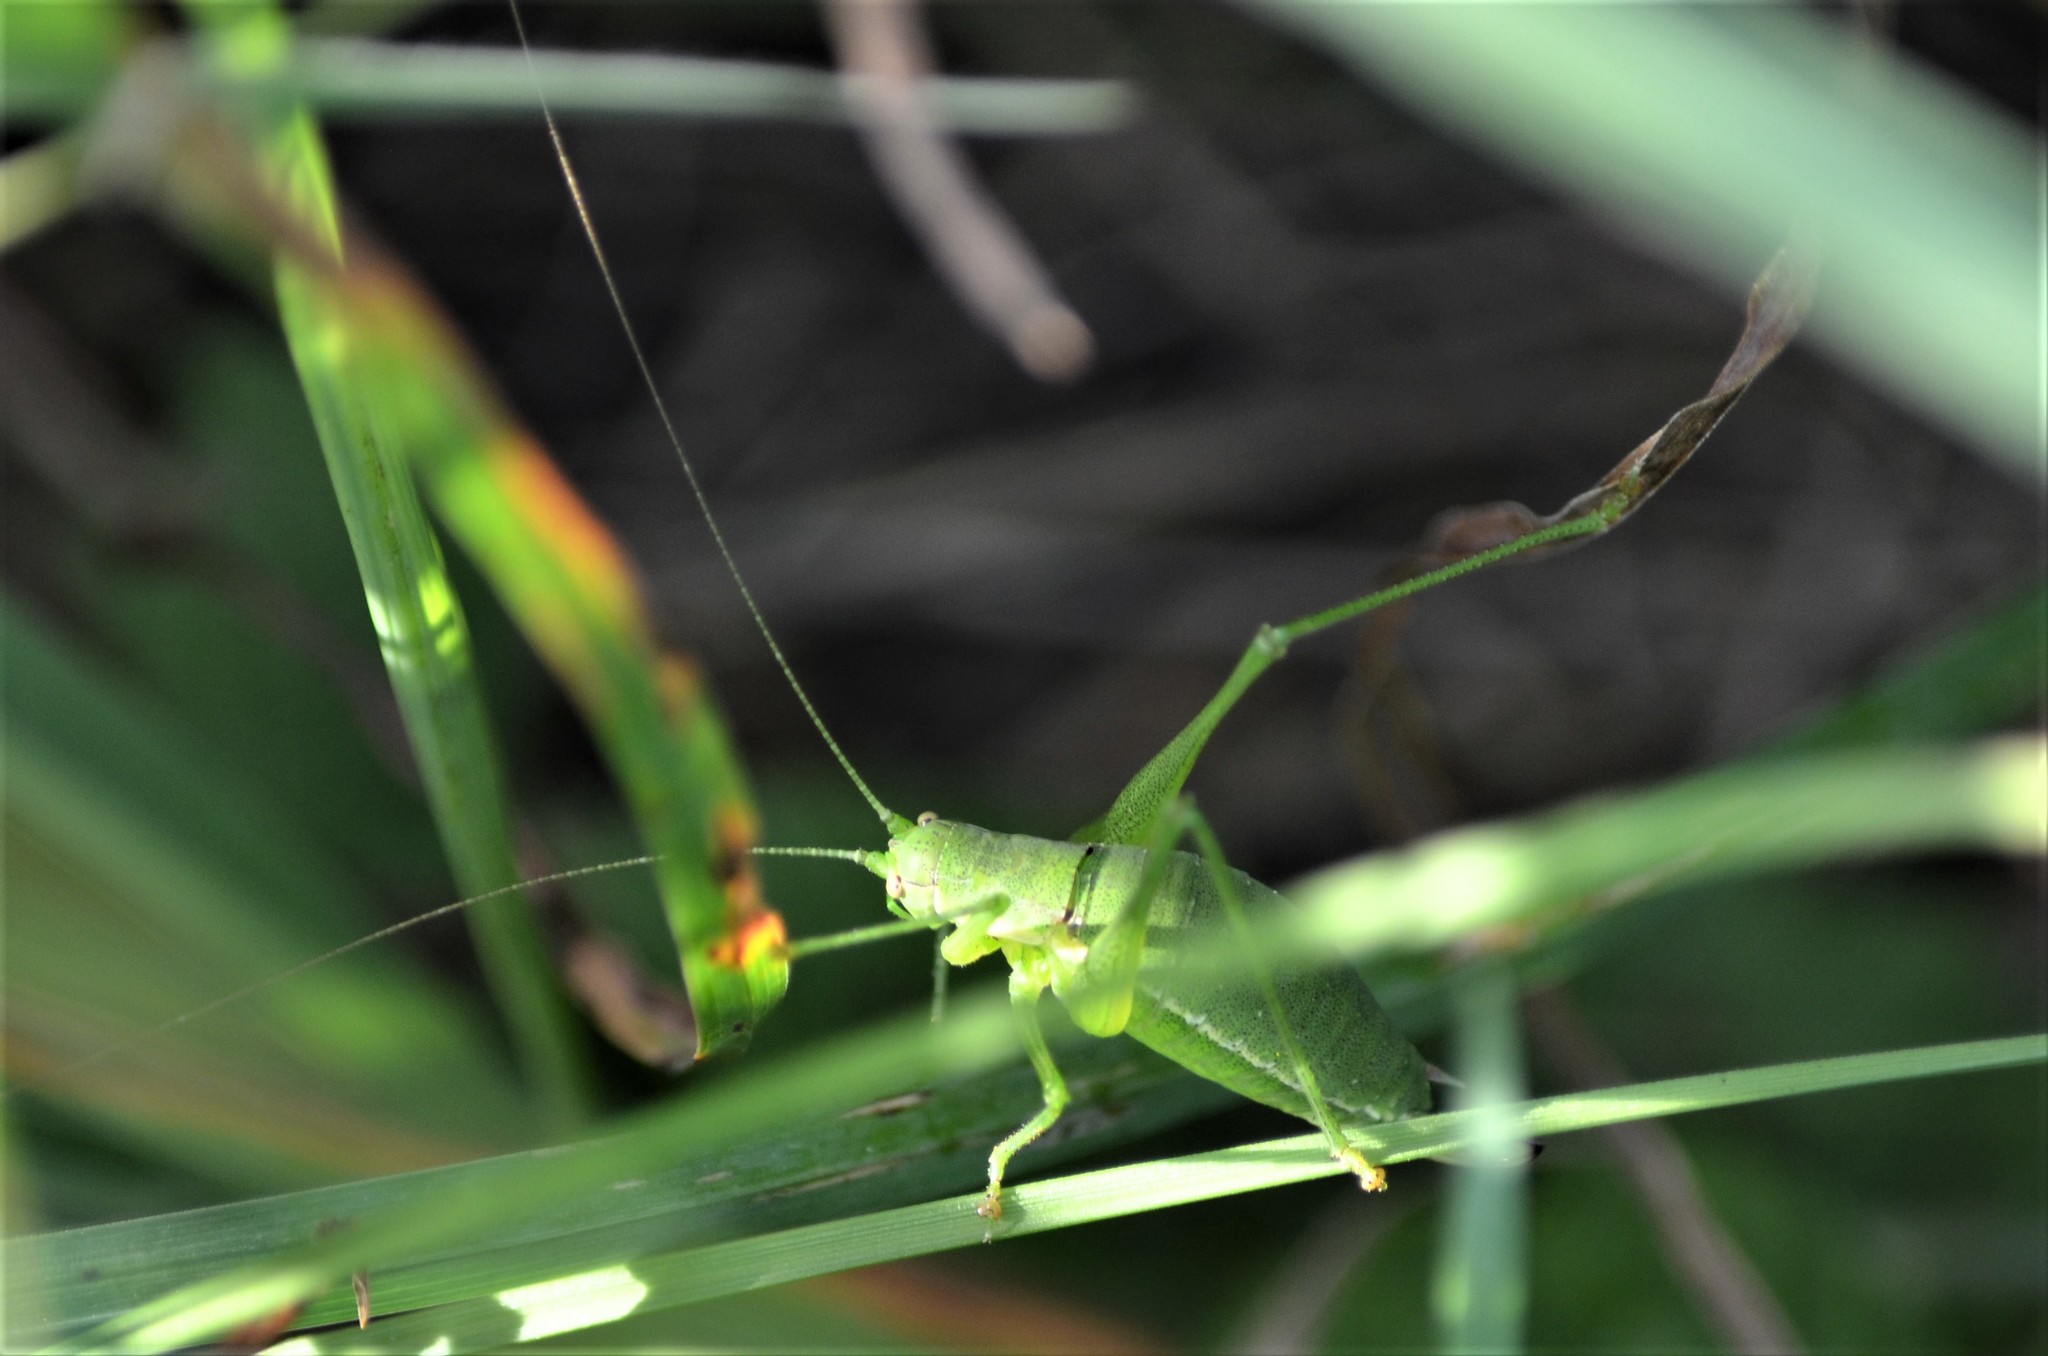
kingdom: Animalia
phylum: Arthropoda
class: Insecta
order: Orthoptera
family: Tettigoniidae
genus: Leptophyes
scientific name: Leptophyes boscii
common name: Balkan speckled bush-cricket
